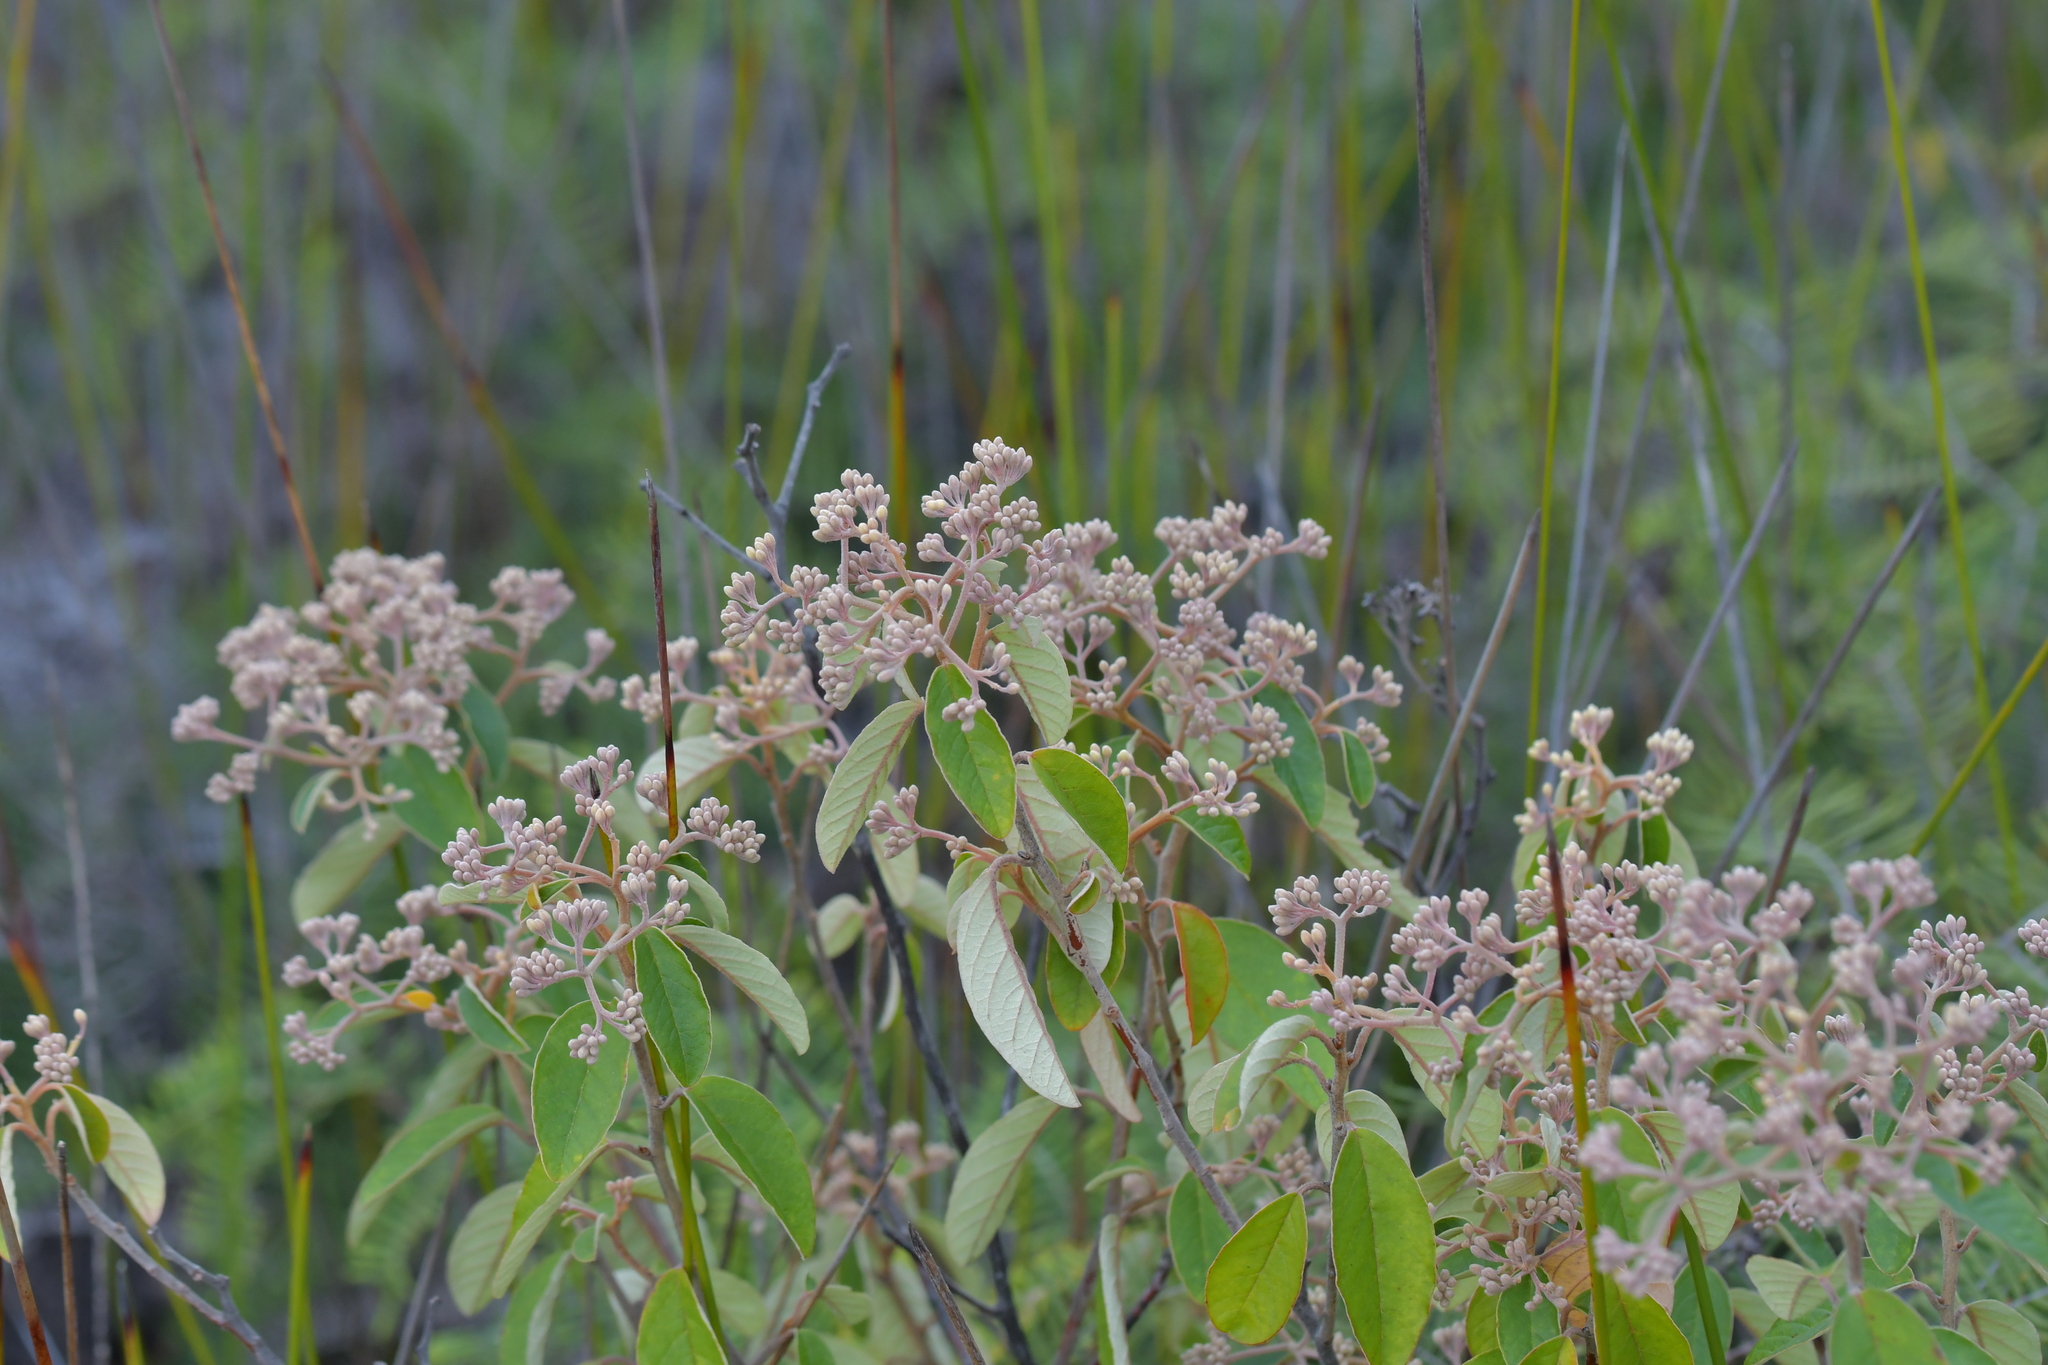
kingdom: Plantae
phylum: Tracheophyta
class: Magnoliopsida
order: Rosales
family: Rhamnaceae
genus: Pomaderris
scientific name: Pomaderris kumeraho
